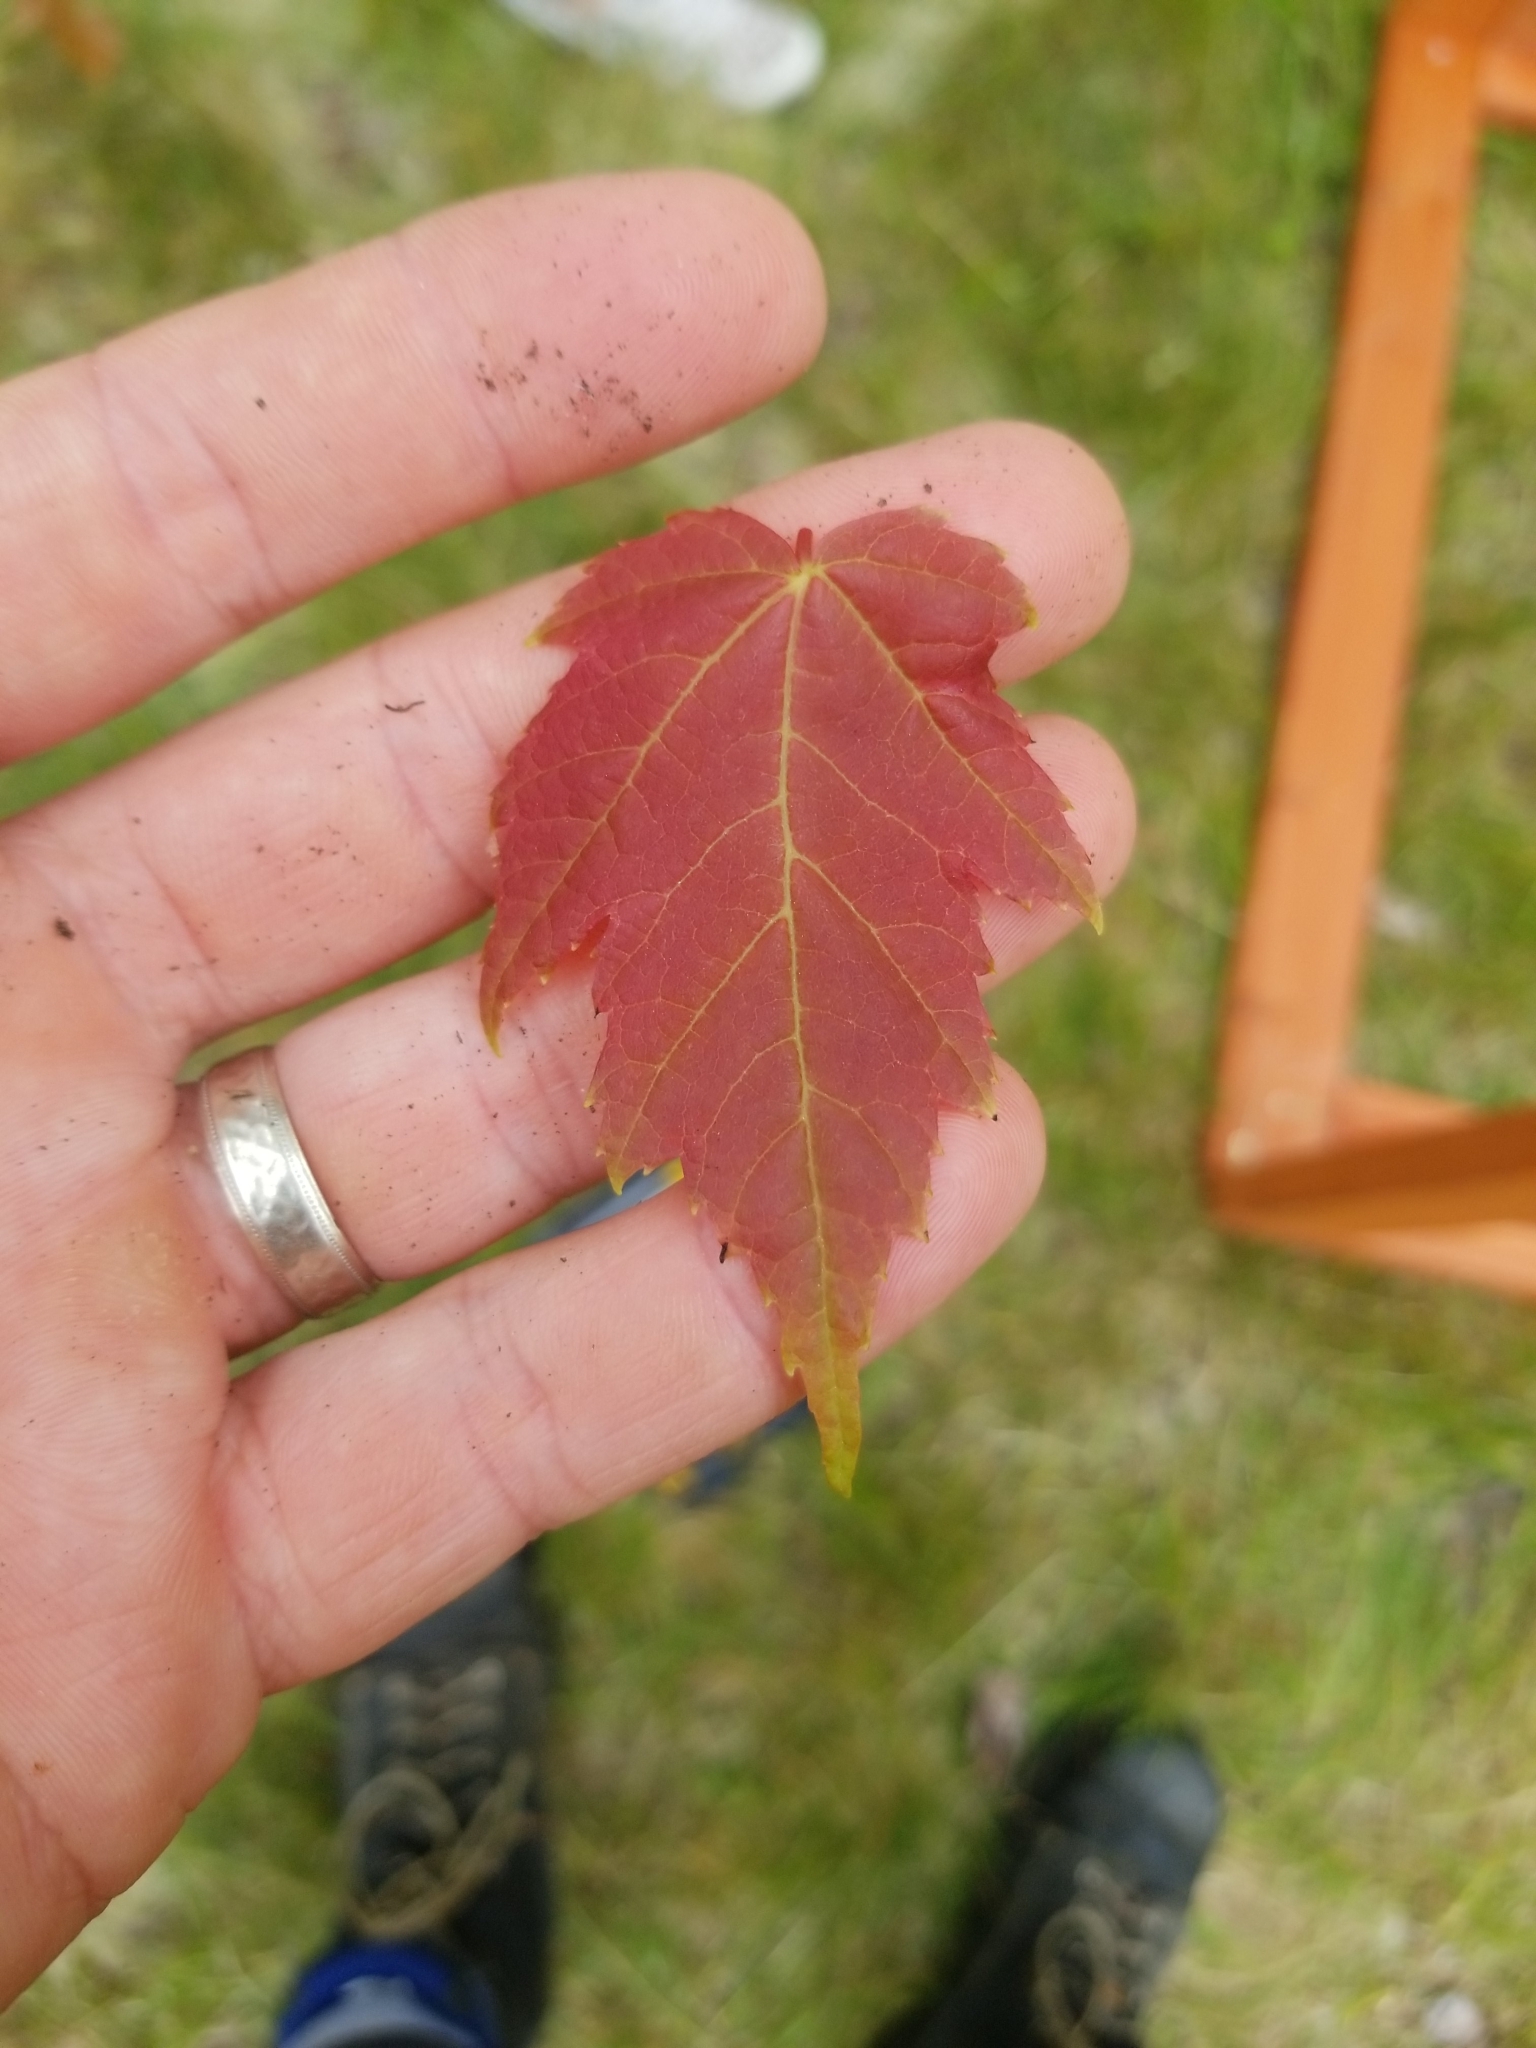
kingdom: Plantae
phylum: Tracheophyta
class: Magnoliopsida
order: Sapindales
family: Sapindaceae
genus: Acer
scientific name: Acer rubrum
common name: Red maple
